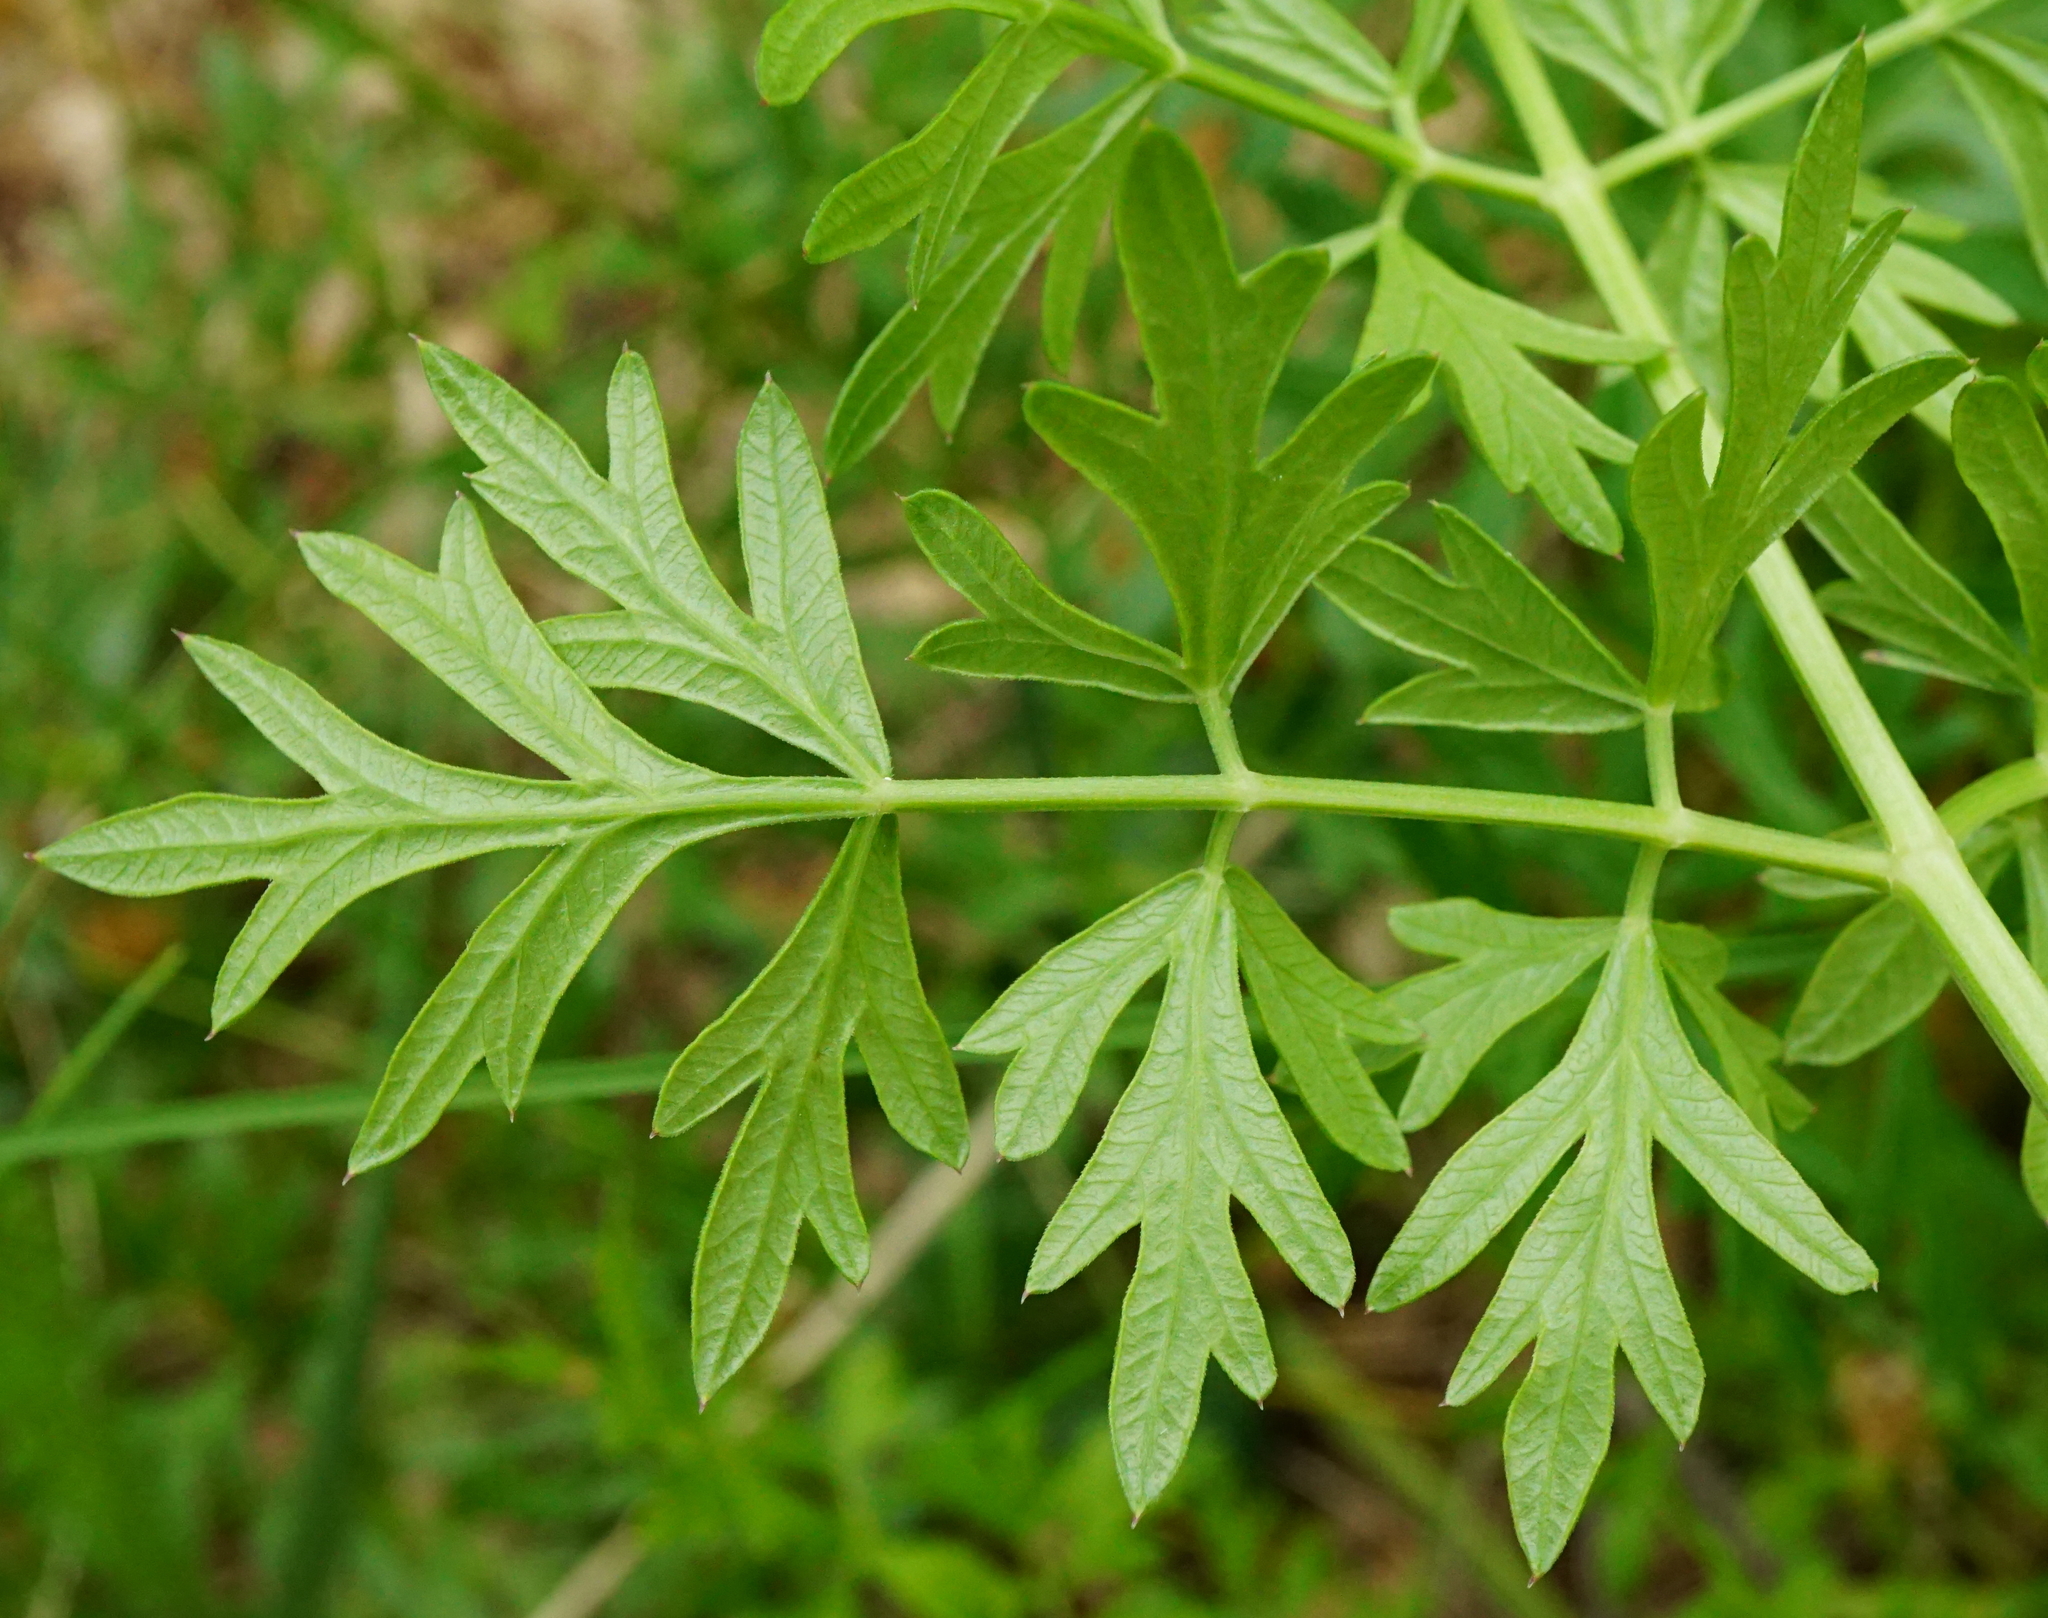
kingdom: Plantae
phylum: Tracheophyta
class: Magnoliopsida
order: Apiales
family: Apiaceae
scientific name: Apiaceae
